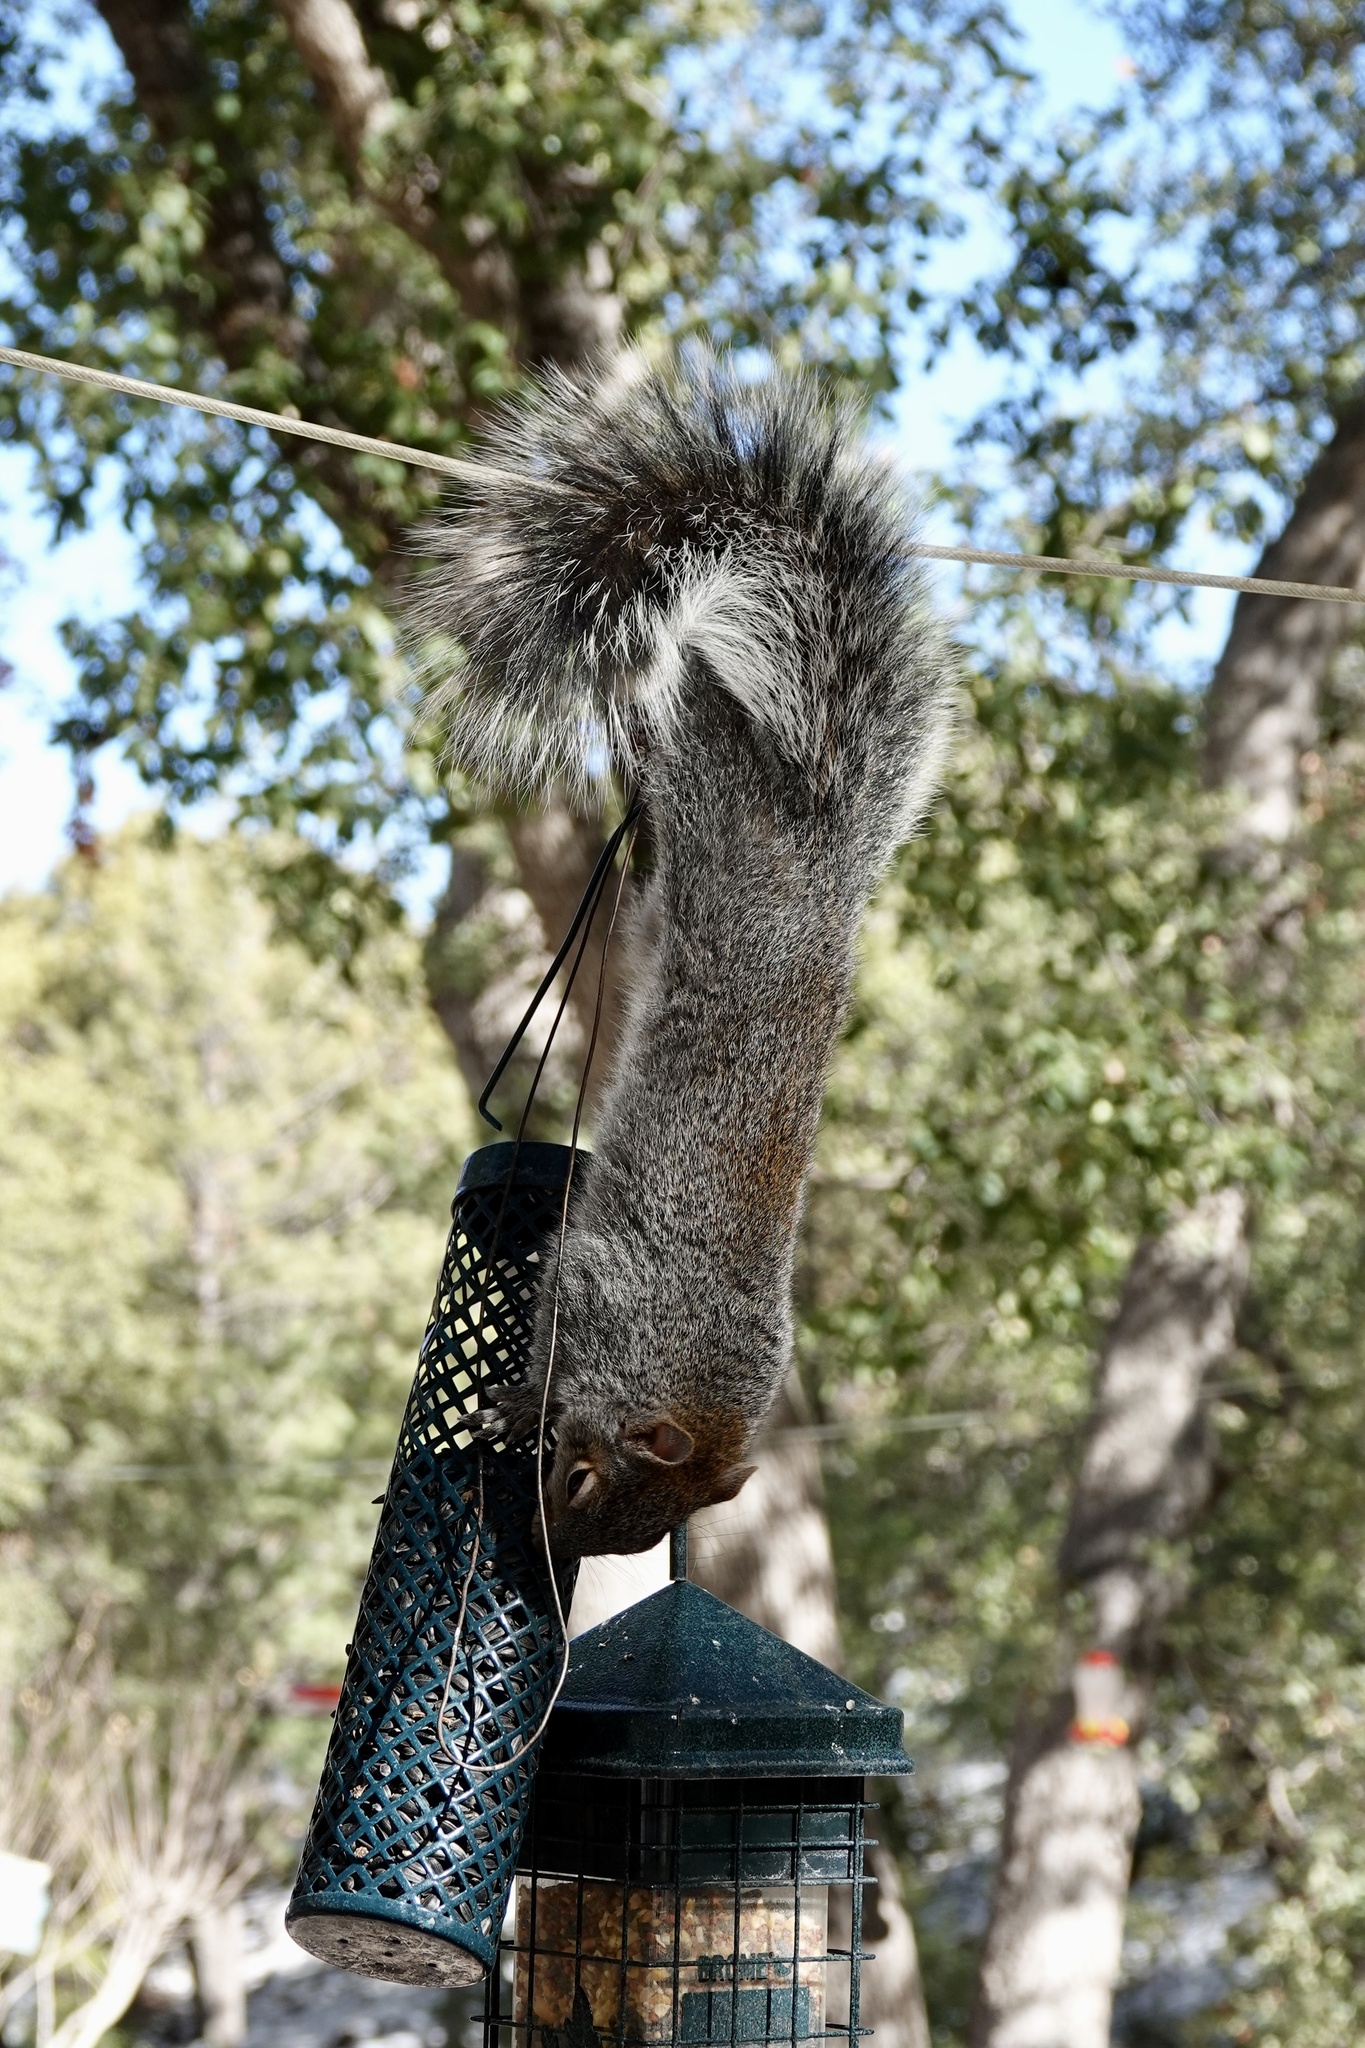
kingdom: Animalia
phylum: Chordata
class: Mammalia
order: Rodentia
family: Sciuridae
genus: Sciurus
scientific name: Sciurus arizonensis
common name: Arizona gray squirrel
